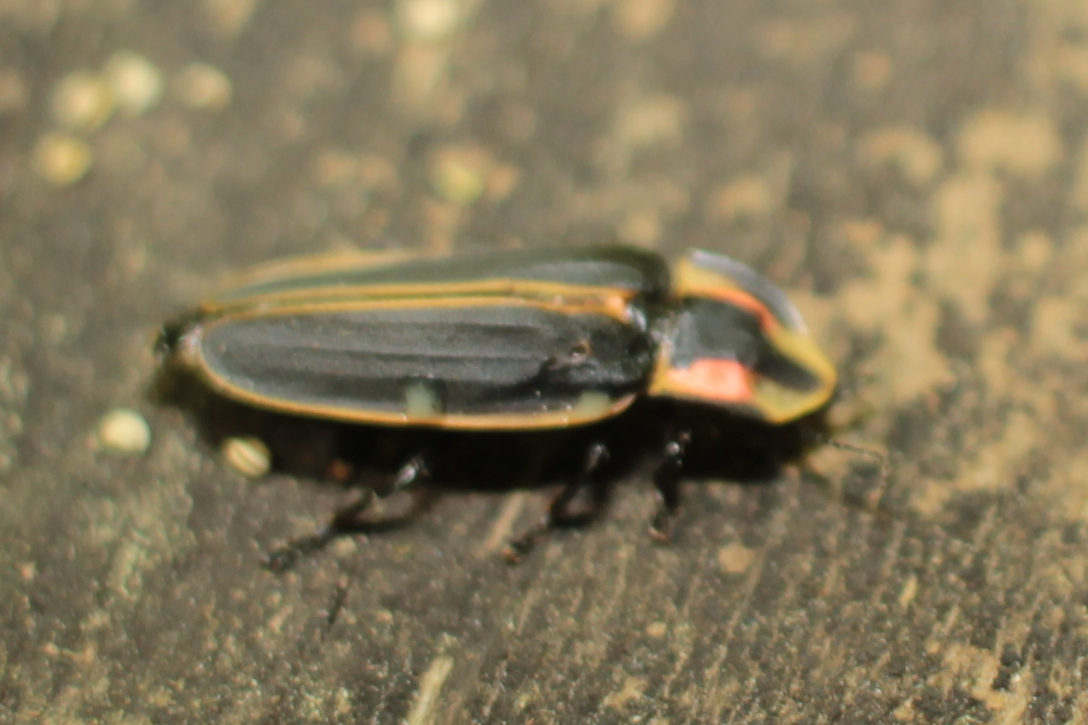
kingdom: Animalia
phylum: Arthropoda
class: Insecta
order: Coleoptera
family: Lampyridae
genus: Pyractomena
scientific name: Pyractomena borealis
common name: Northern firefly
